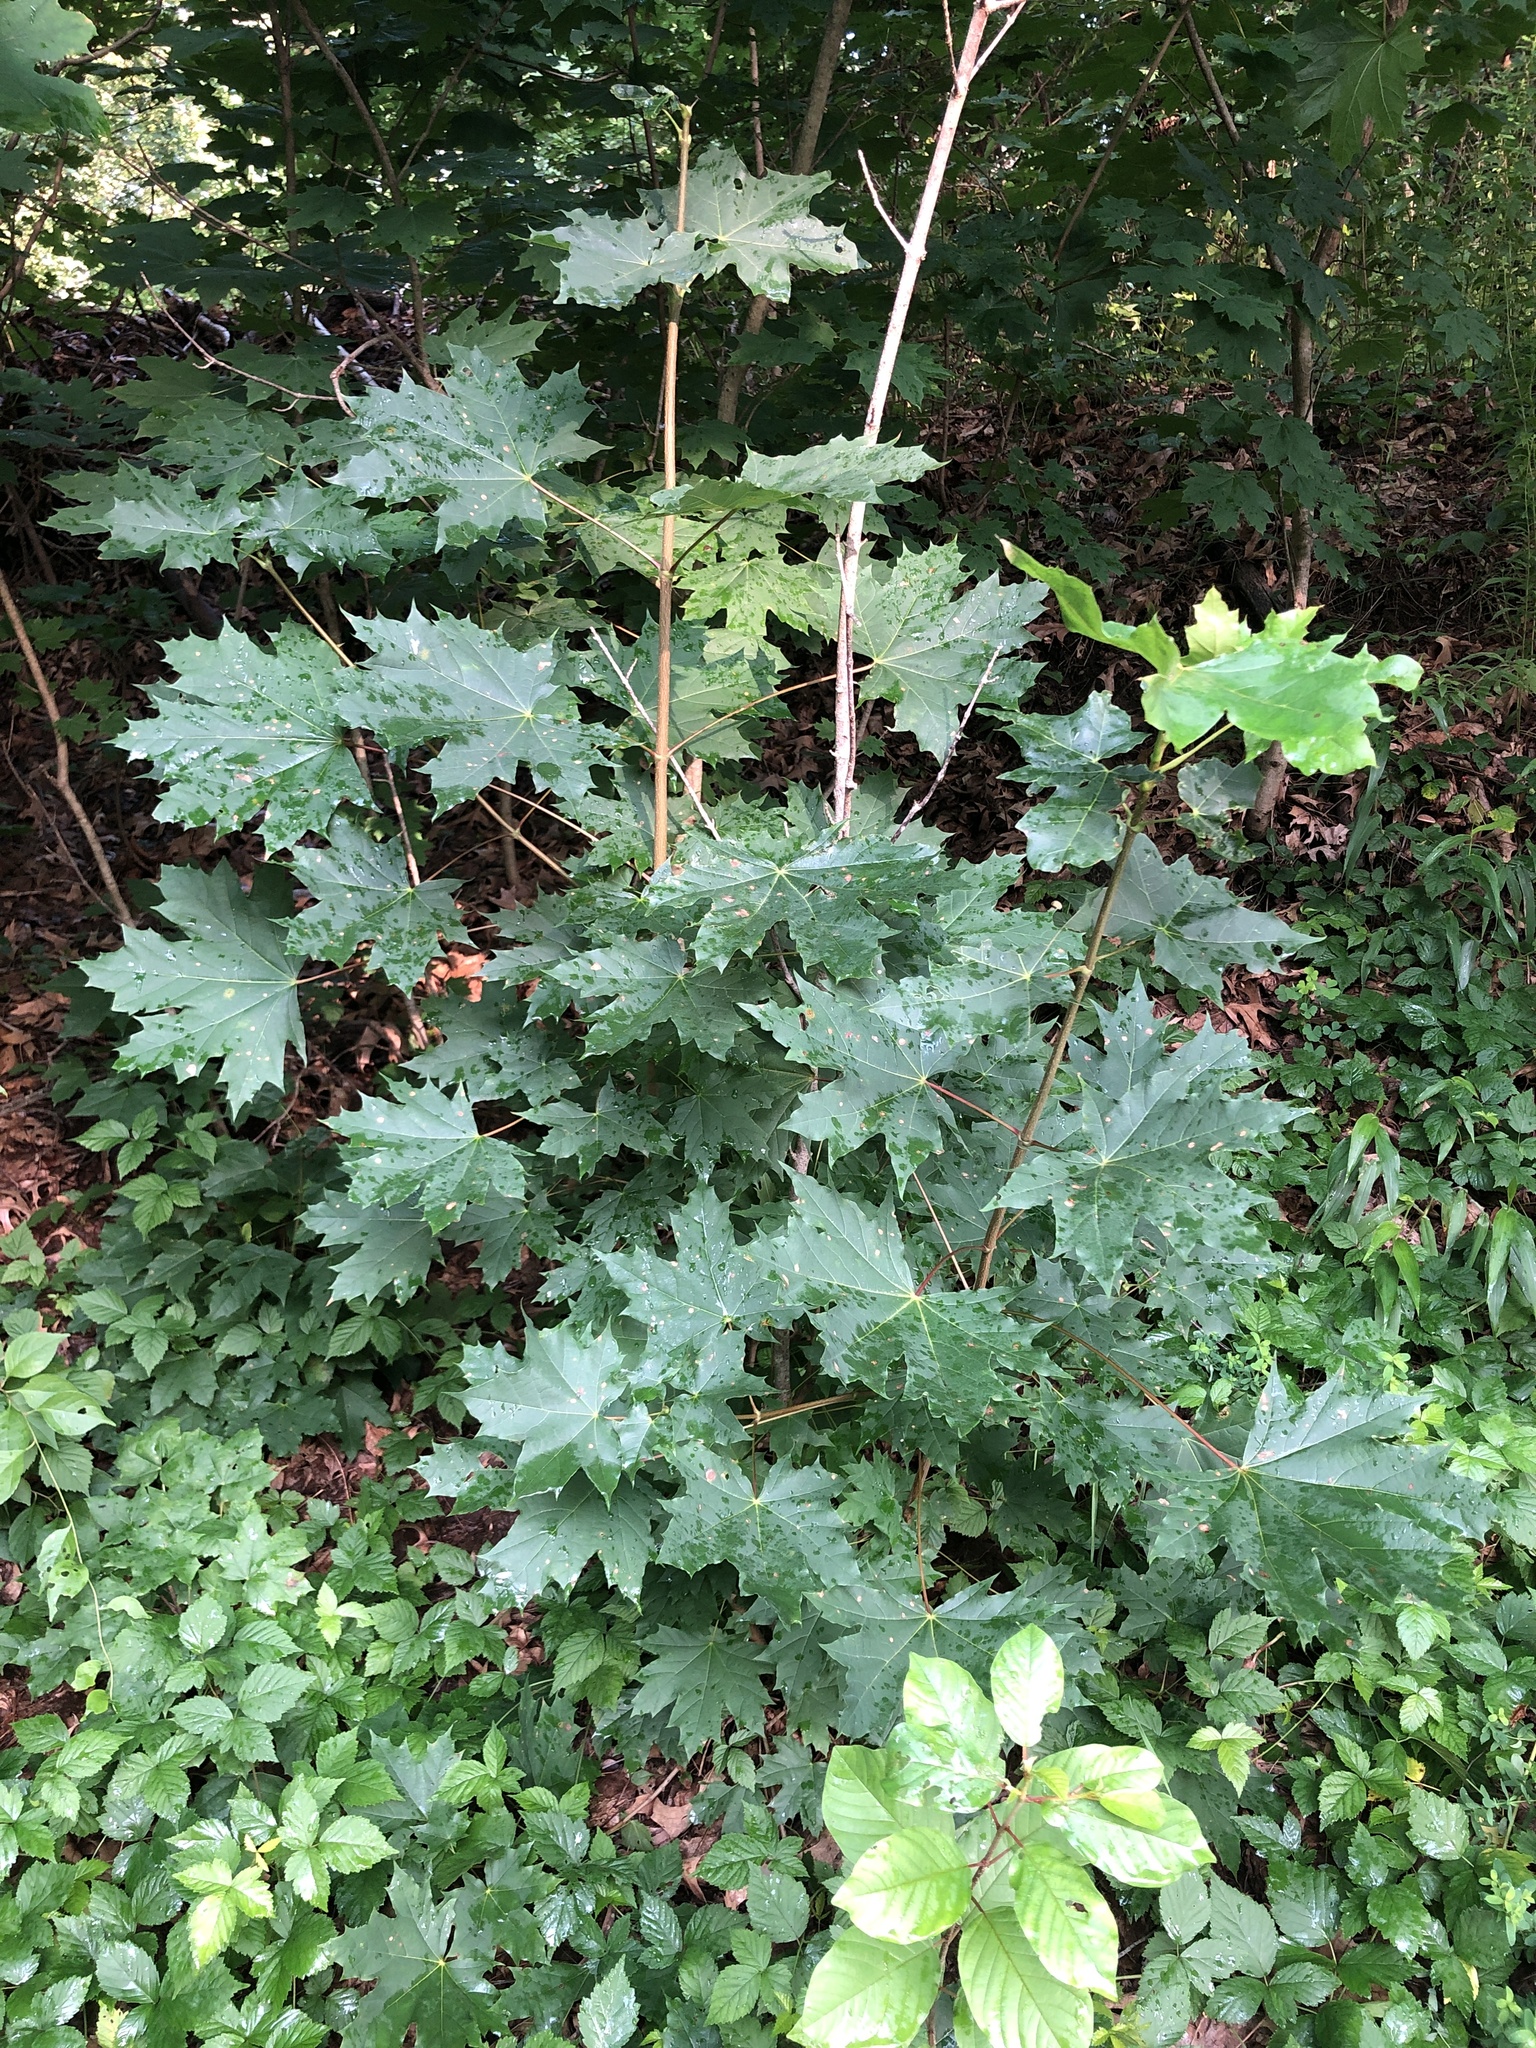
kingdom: Plantae
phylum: Tracheophyta
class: Magnoliopsida
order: Sapindales
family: Sapindaceae
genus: Acer
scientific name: Acer platanoides
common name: Norway maple
